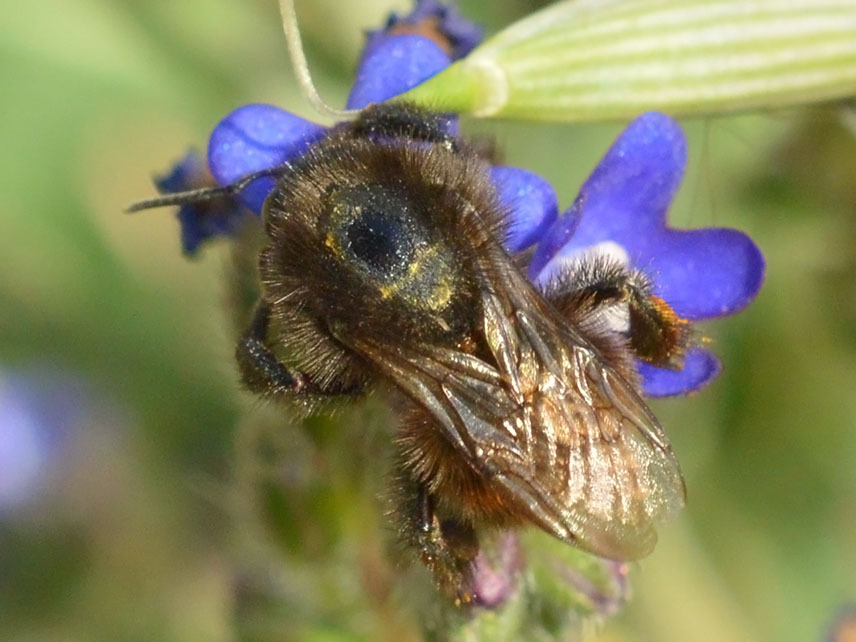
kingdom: Animalia
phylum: Arthropoda
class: Insecta
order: Hymenoptera
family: Apidae
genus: Bombus
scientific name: Bombus humilis
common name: Brown-banded carder-bee
